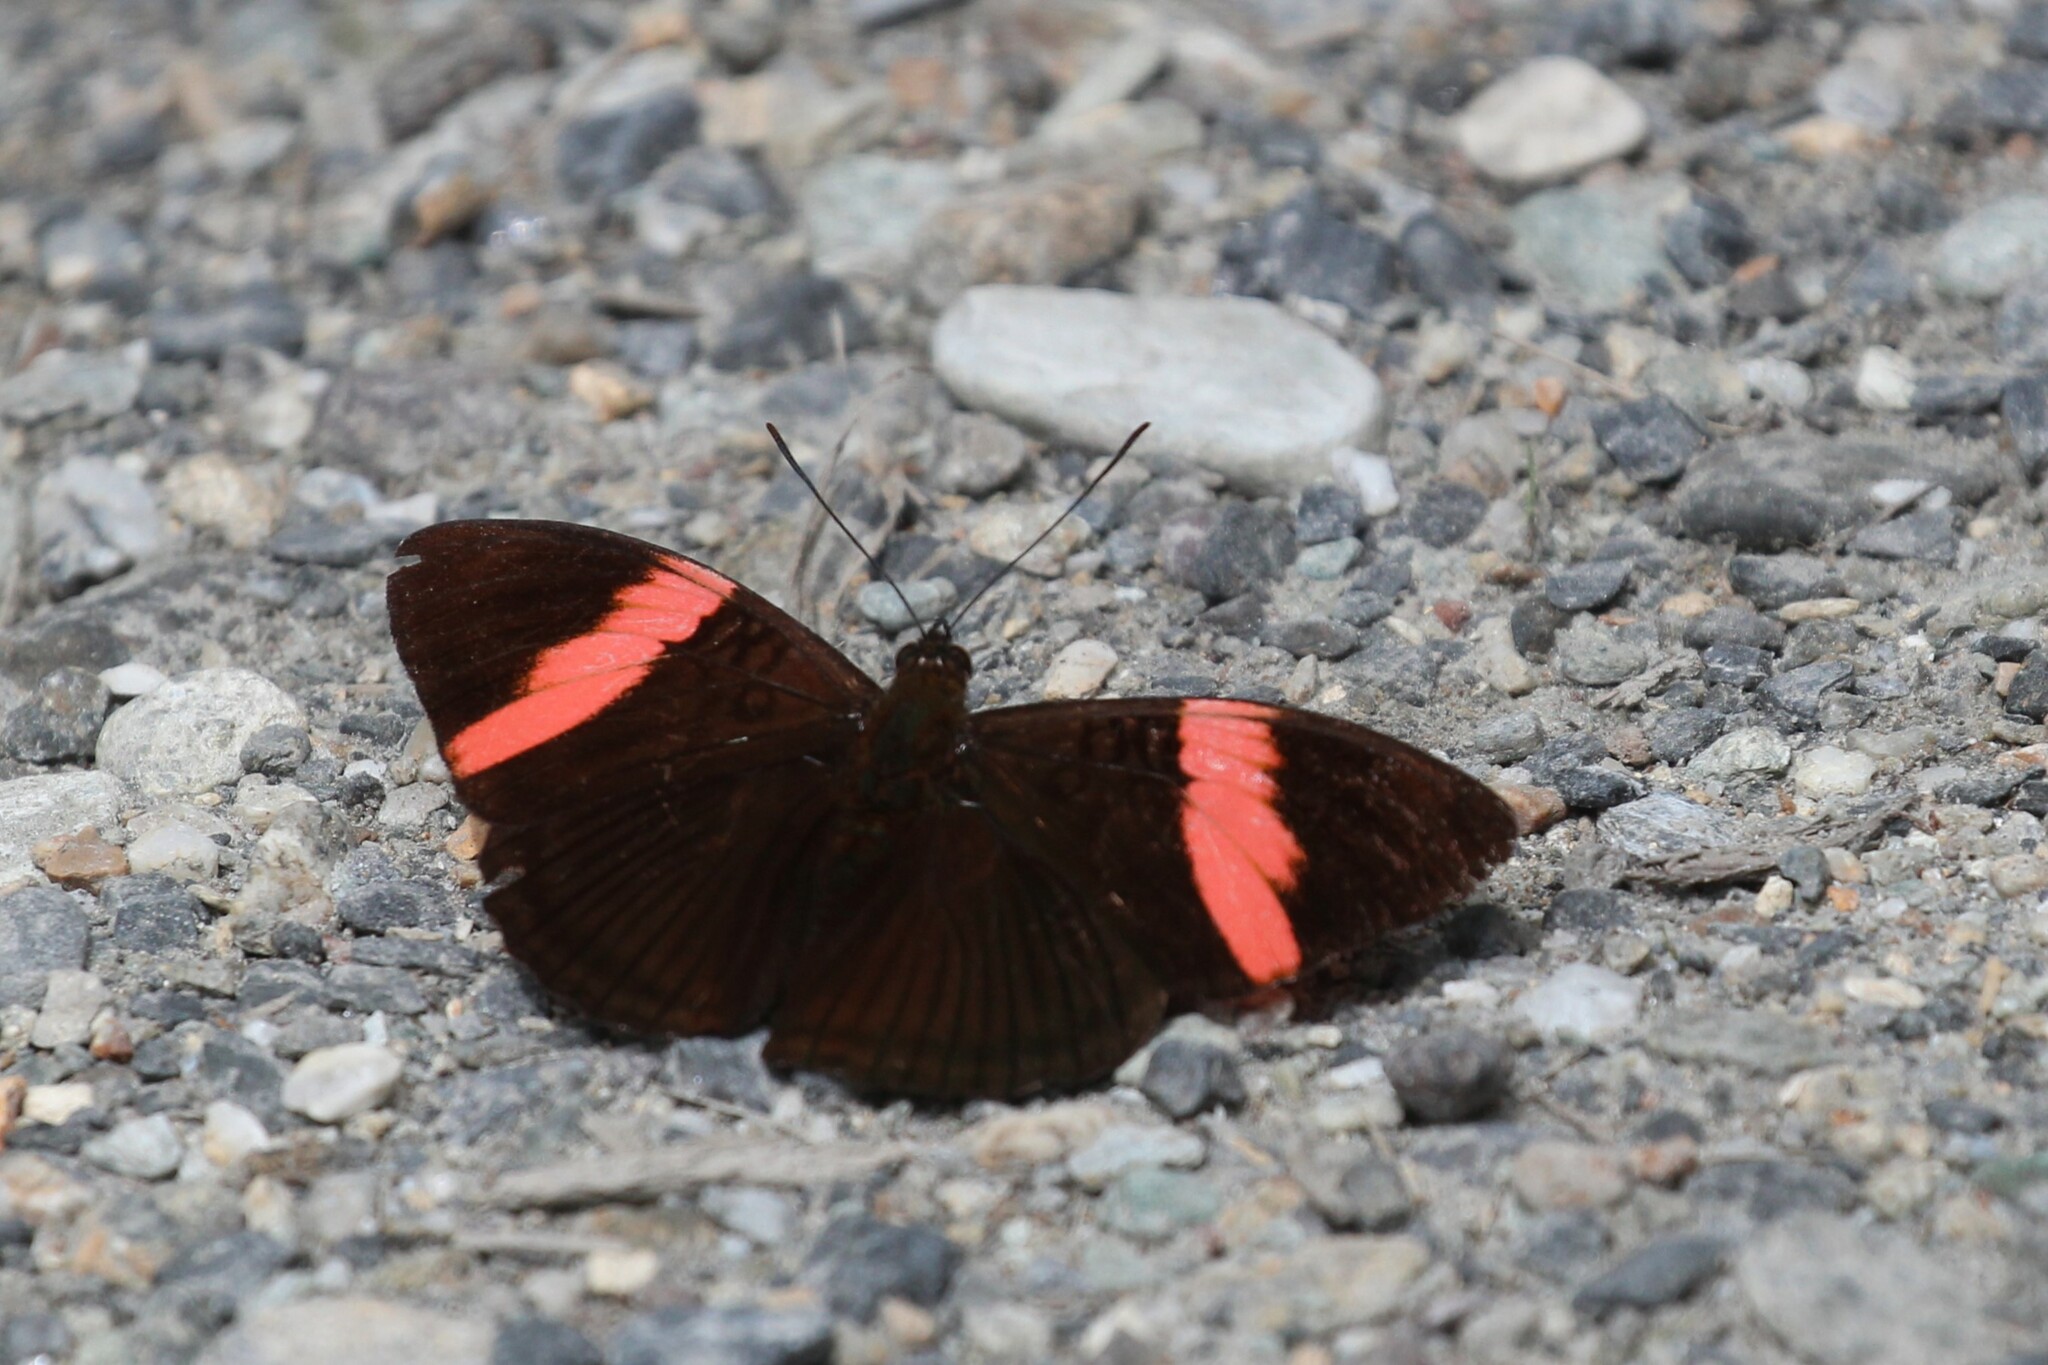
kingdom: Animalia
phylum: Arthropoda
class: Insecta
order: Lepidoptera
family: Nymphalidae
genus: Limenitis
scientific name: Limenitis isis
